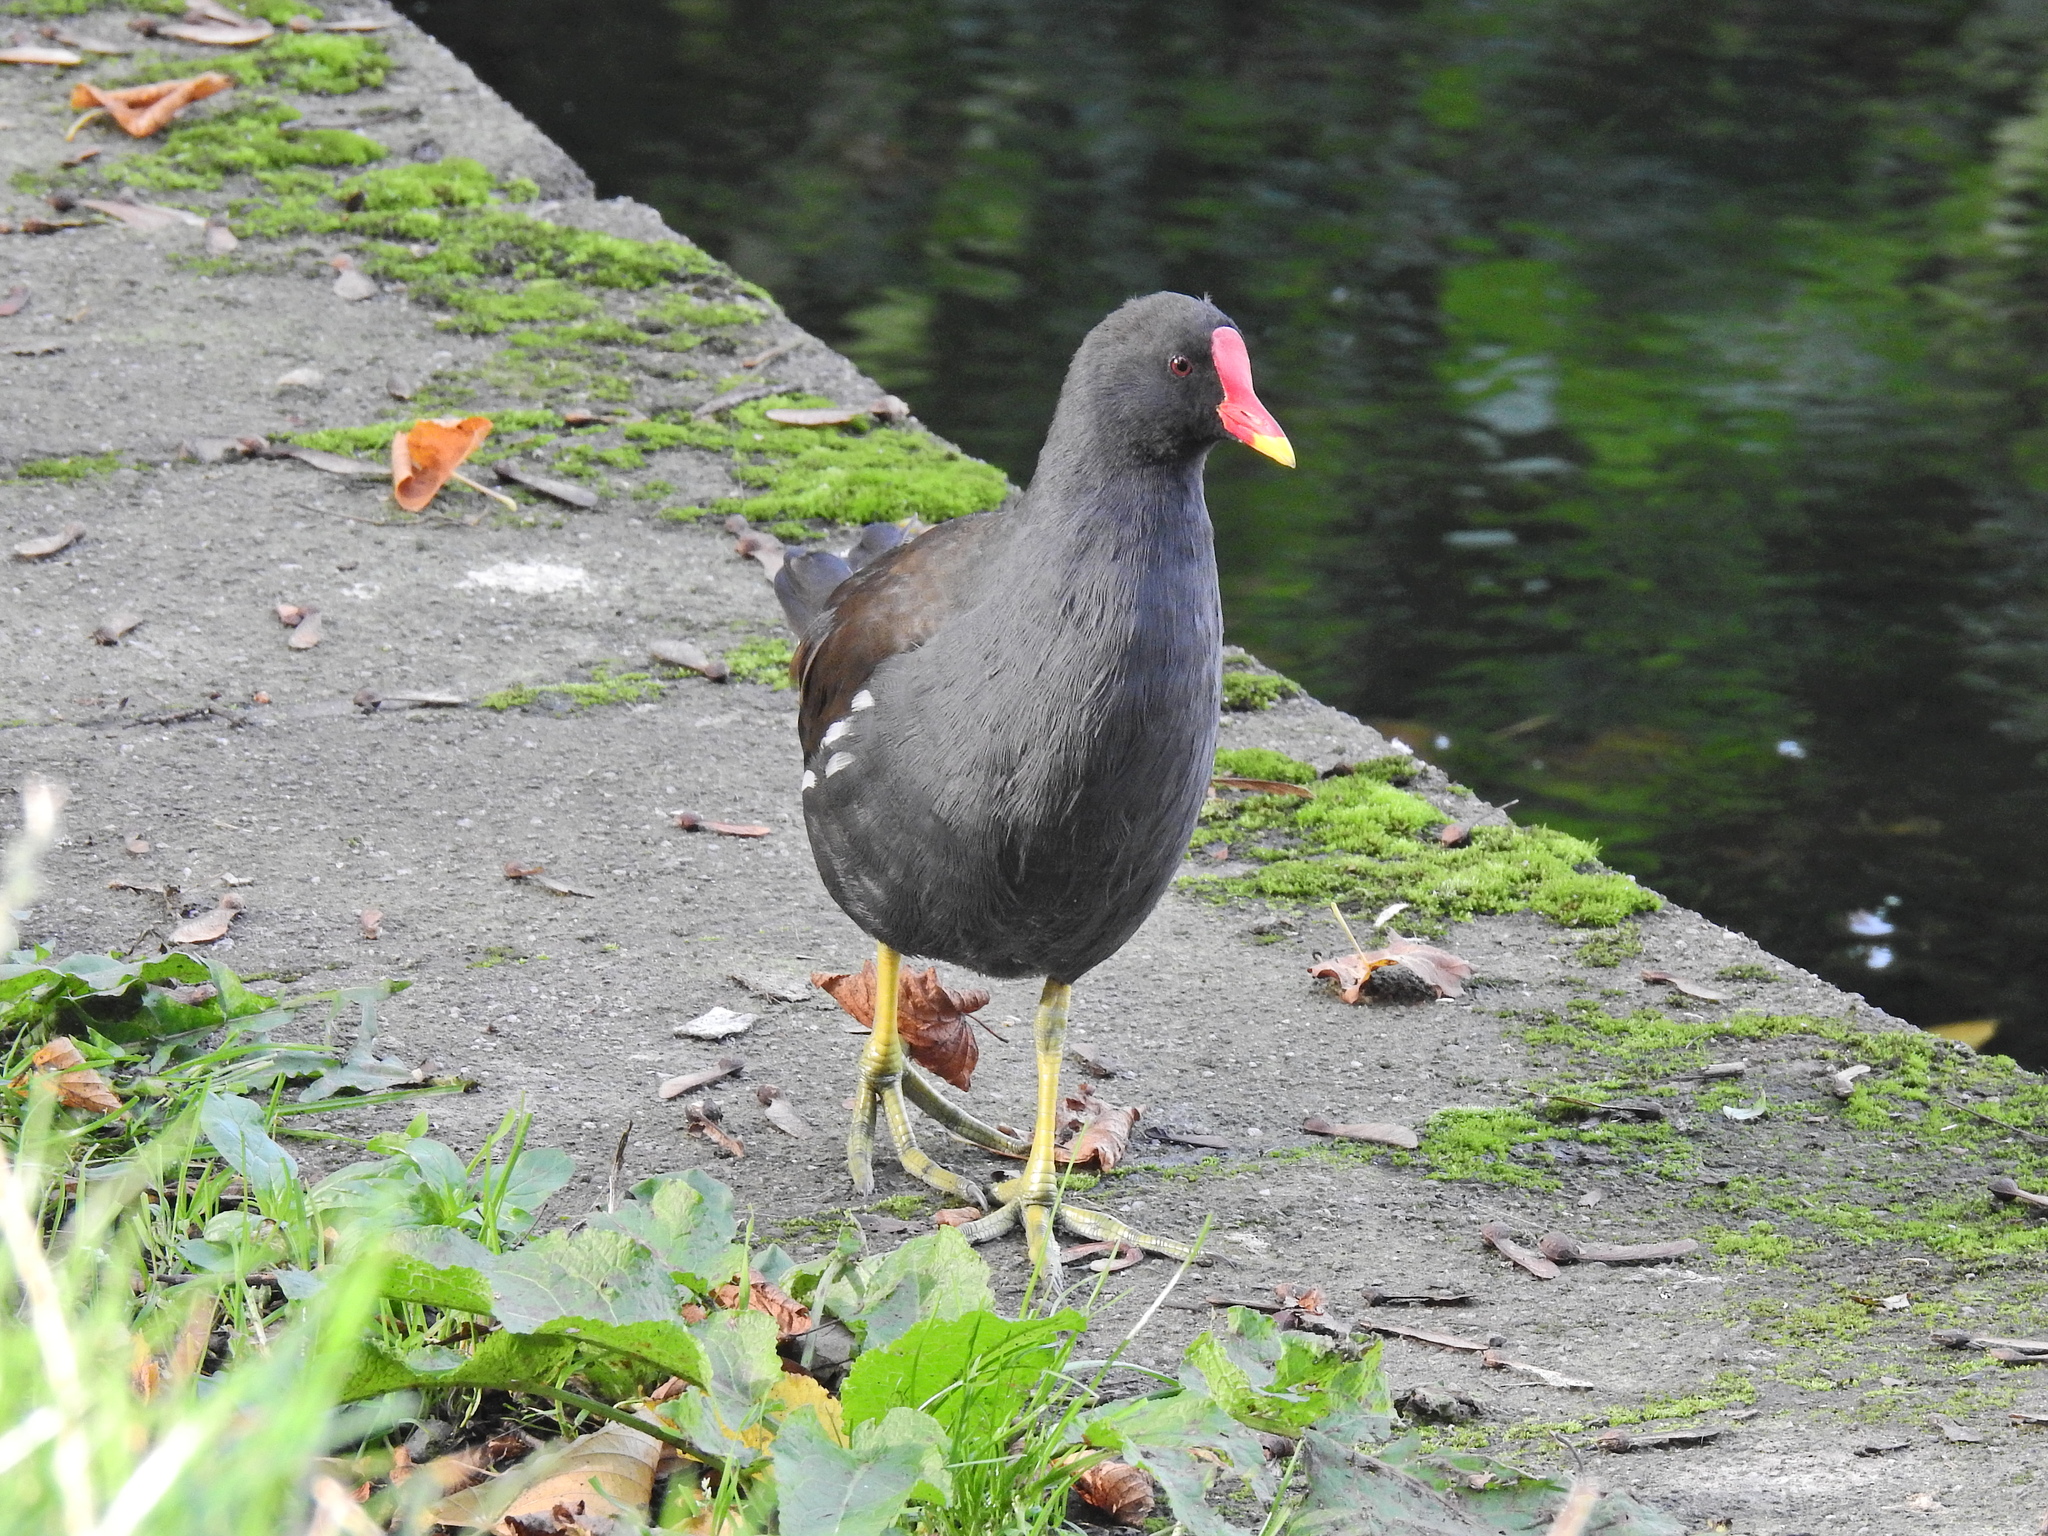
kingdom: Animalia
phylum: Chordata
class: Aves
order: Gruiformes
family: Rallidae
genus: Gallinula
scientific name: Gallinula chloropus
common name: Common moorhen
